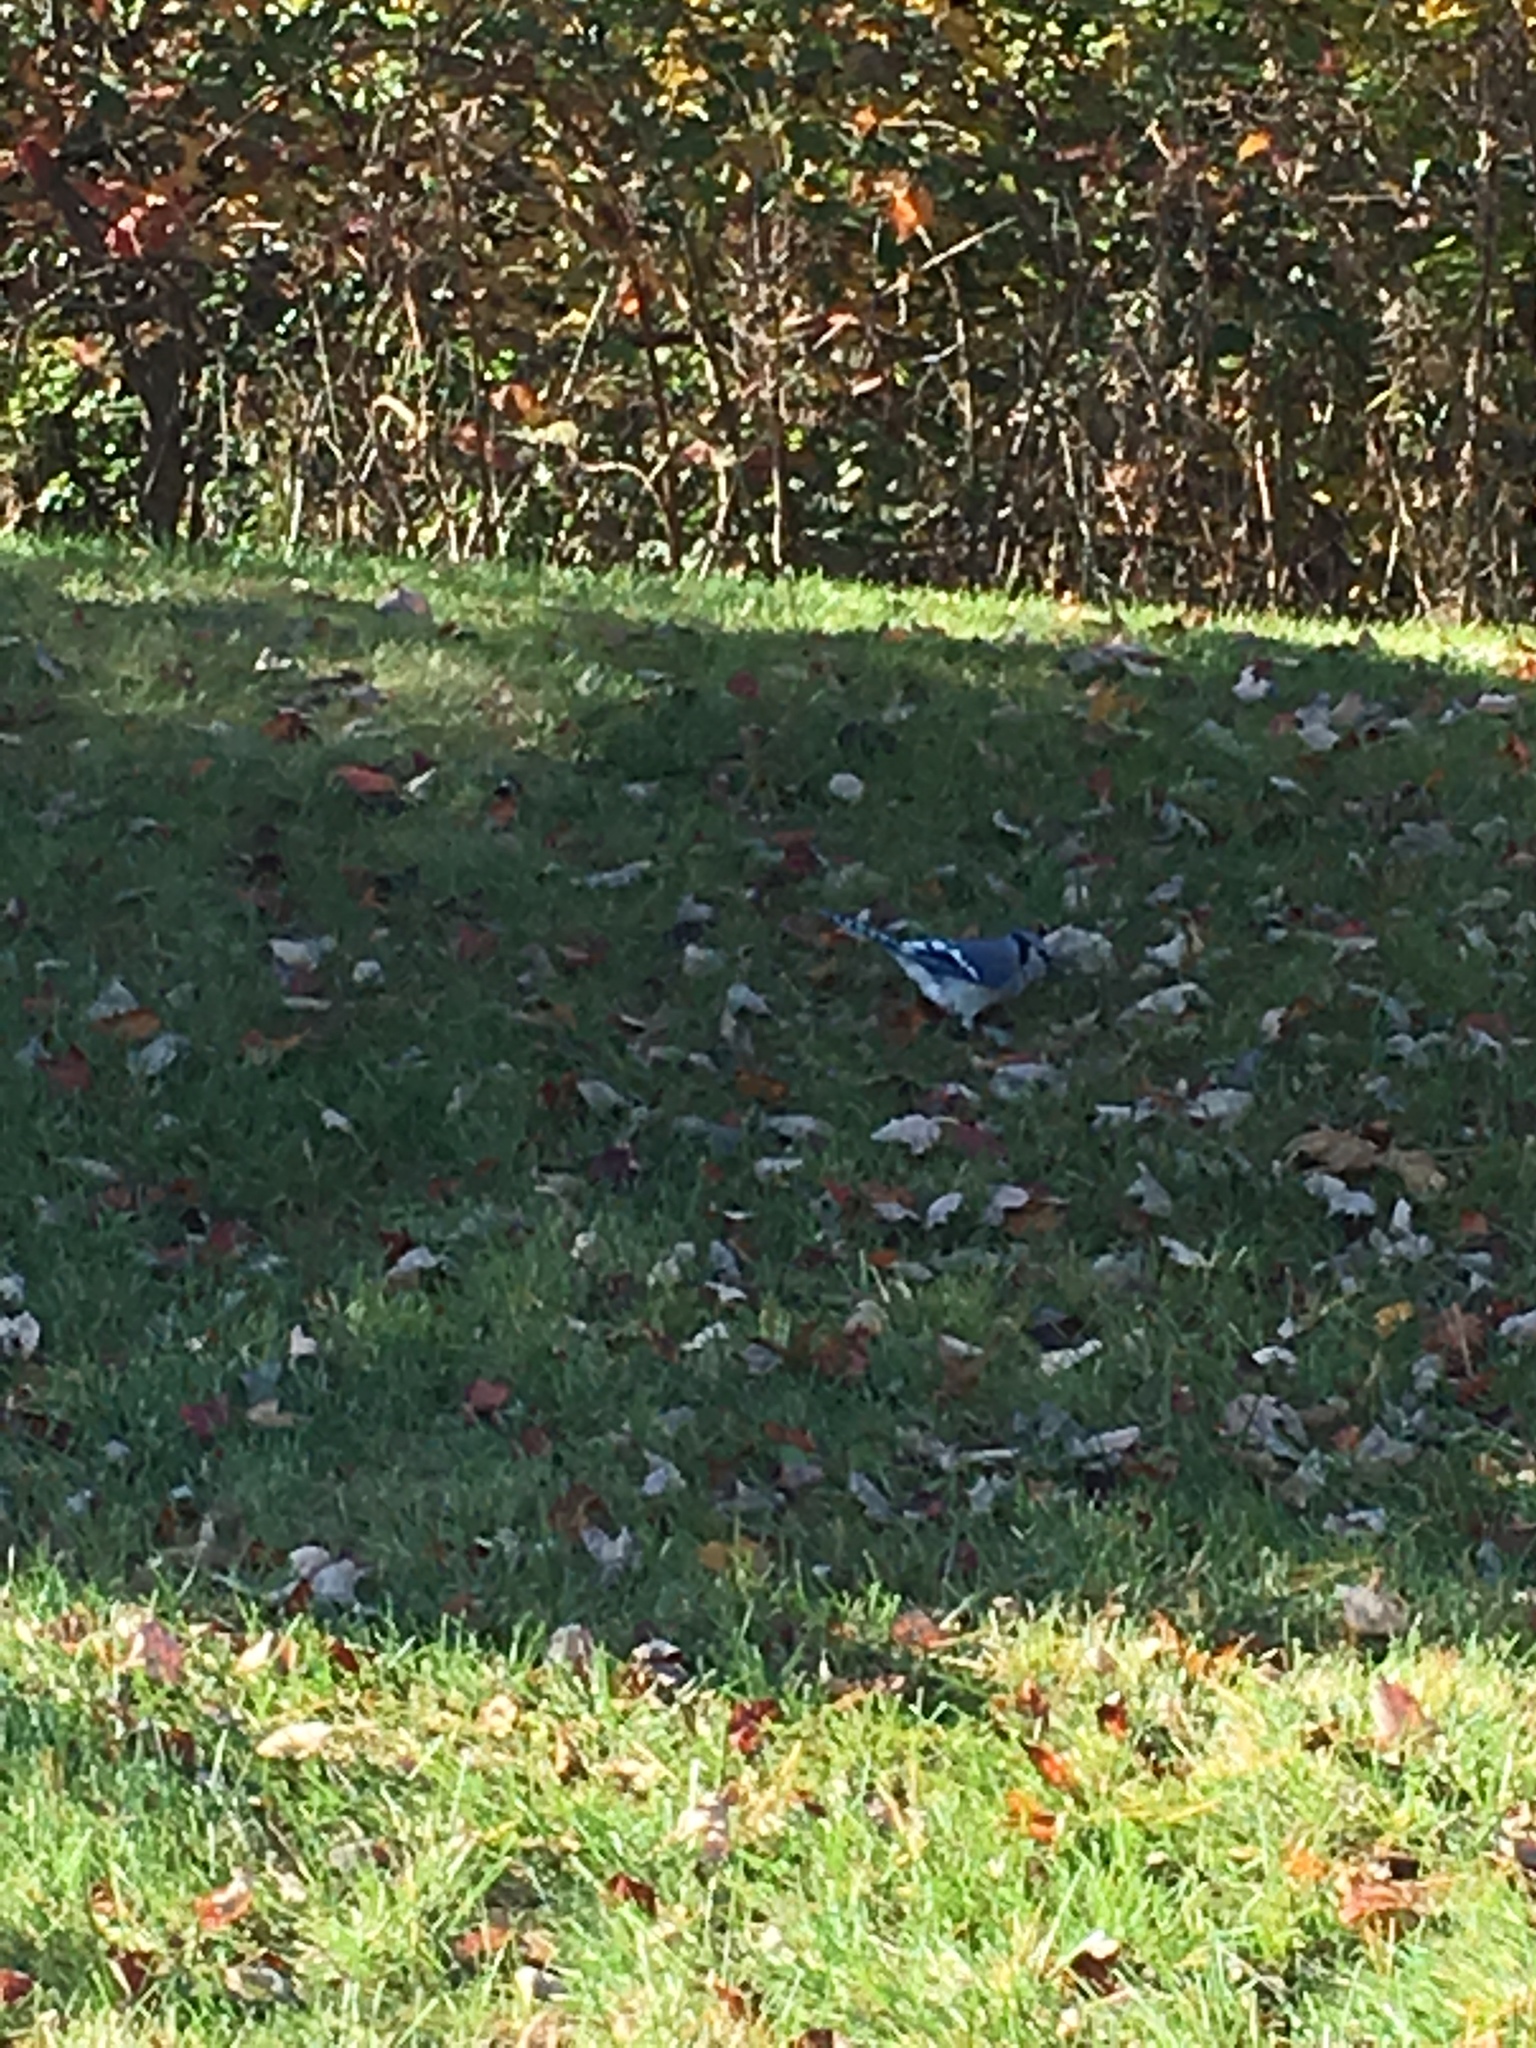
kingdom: Animalia
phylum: Chordata
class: Aves
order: Passeriformes
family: Corvidae
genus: Cyanocitta
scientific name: Cyanocitta cristata
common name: Blue jay
